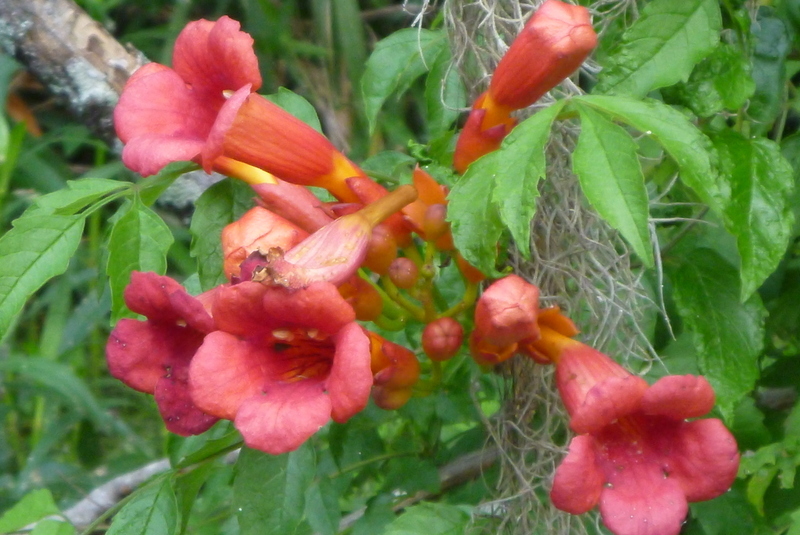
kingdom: Plantae
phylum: Tracheophyta
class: Magnoliopsida
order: Lamiales
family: Bignoniaceae
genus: Campsis
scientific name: Campsis radicans
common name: Trumpet-creeper
